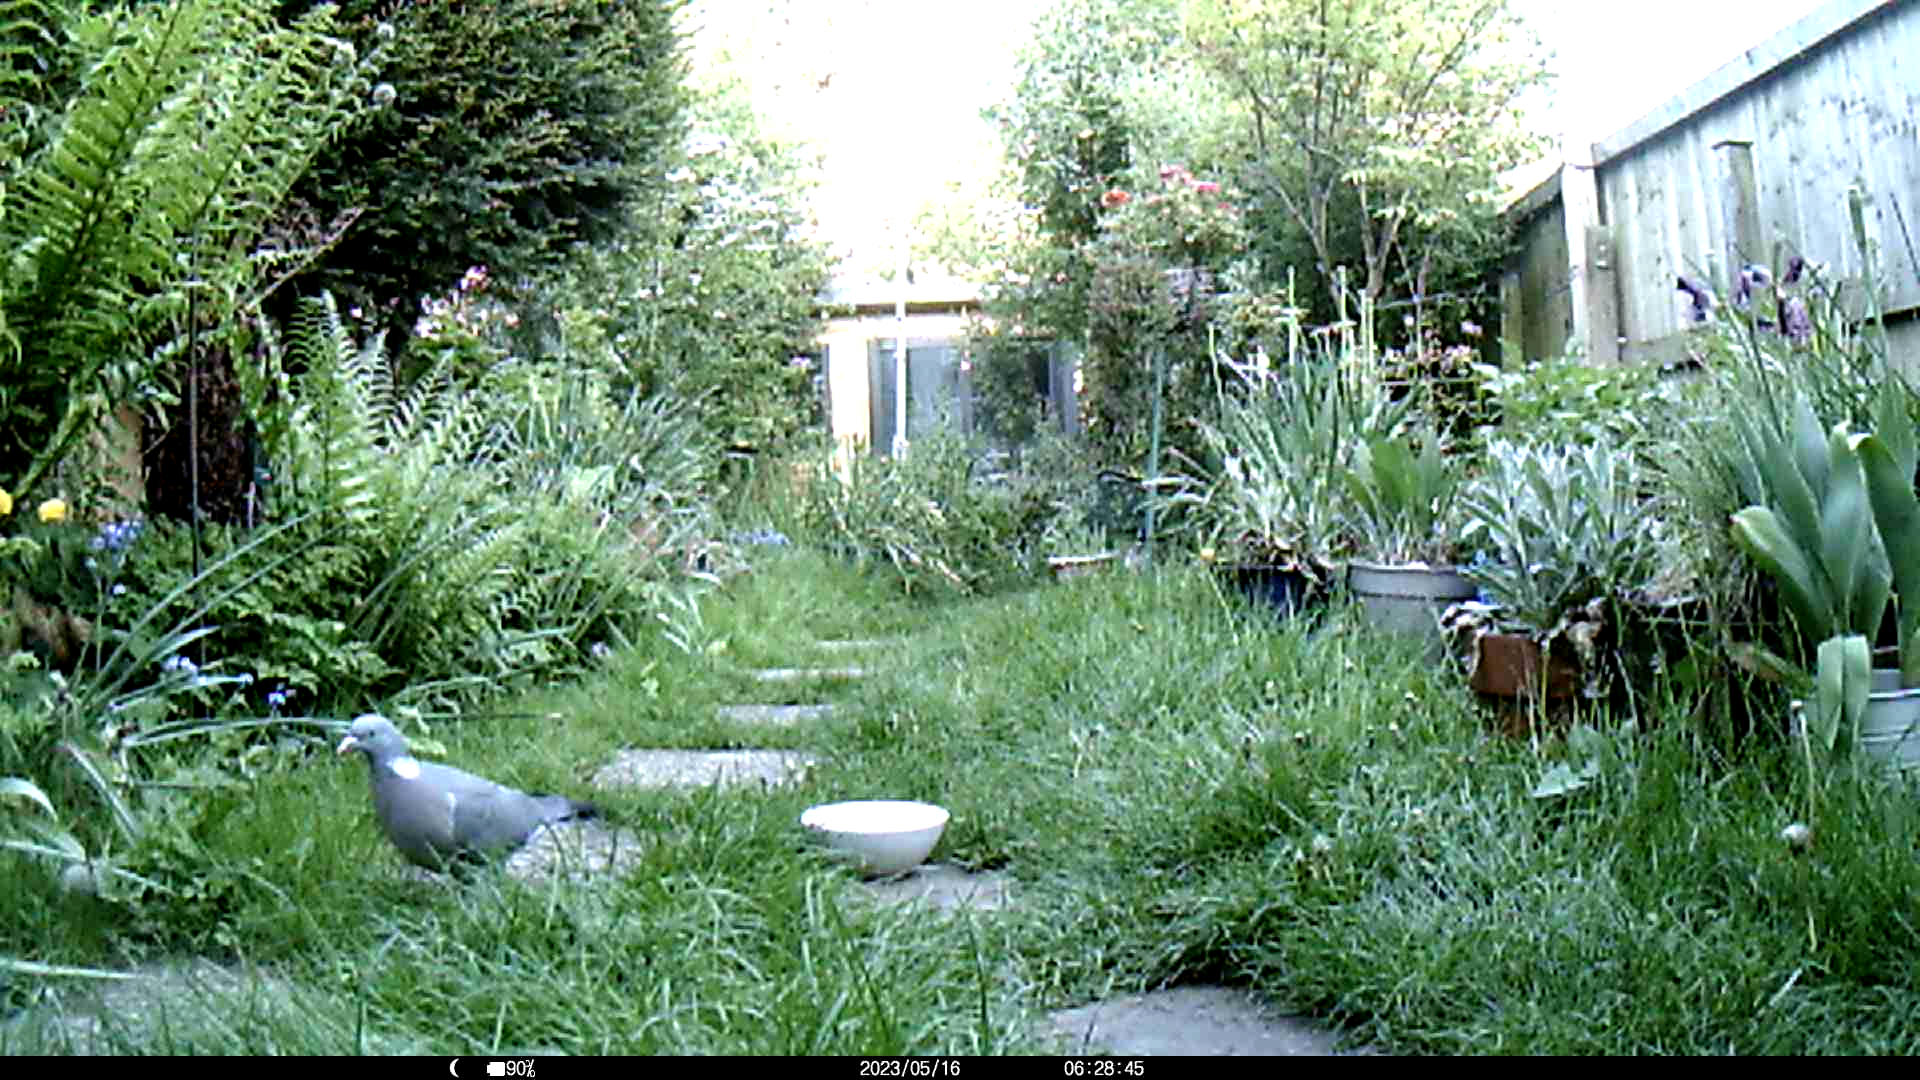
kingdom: Animalia
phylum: Chordata
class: Aves
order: Columbiformes
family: Columbidae
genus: Columba
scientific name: Columba palumbus
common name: Common wood pigeon
